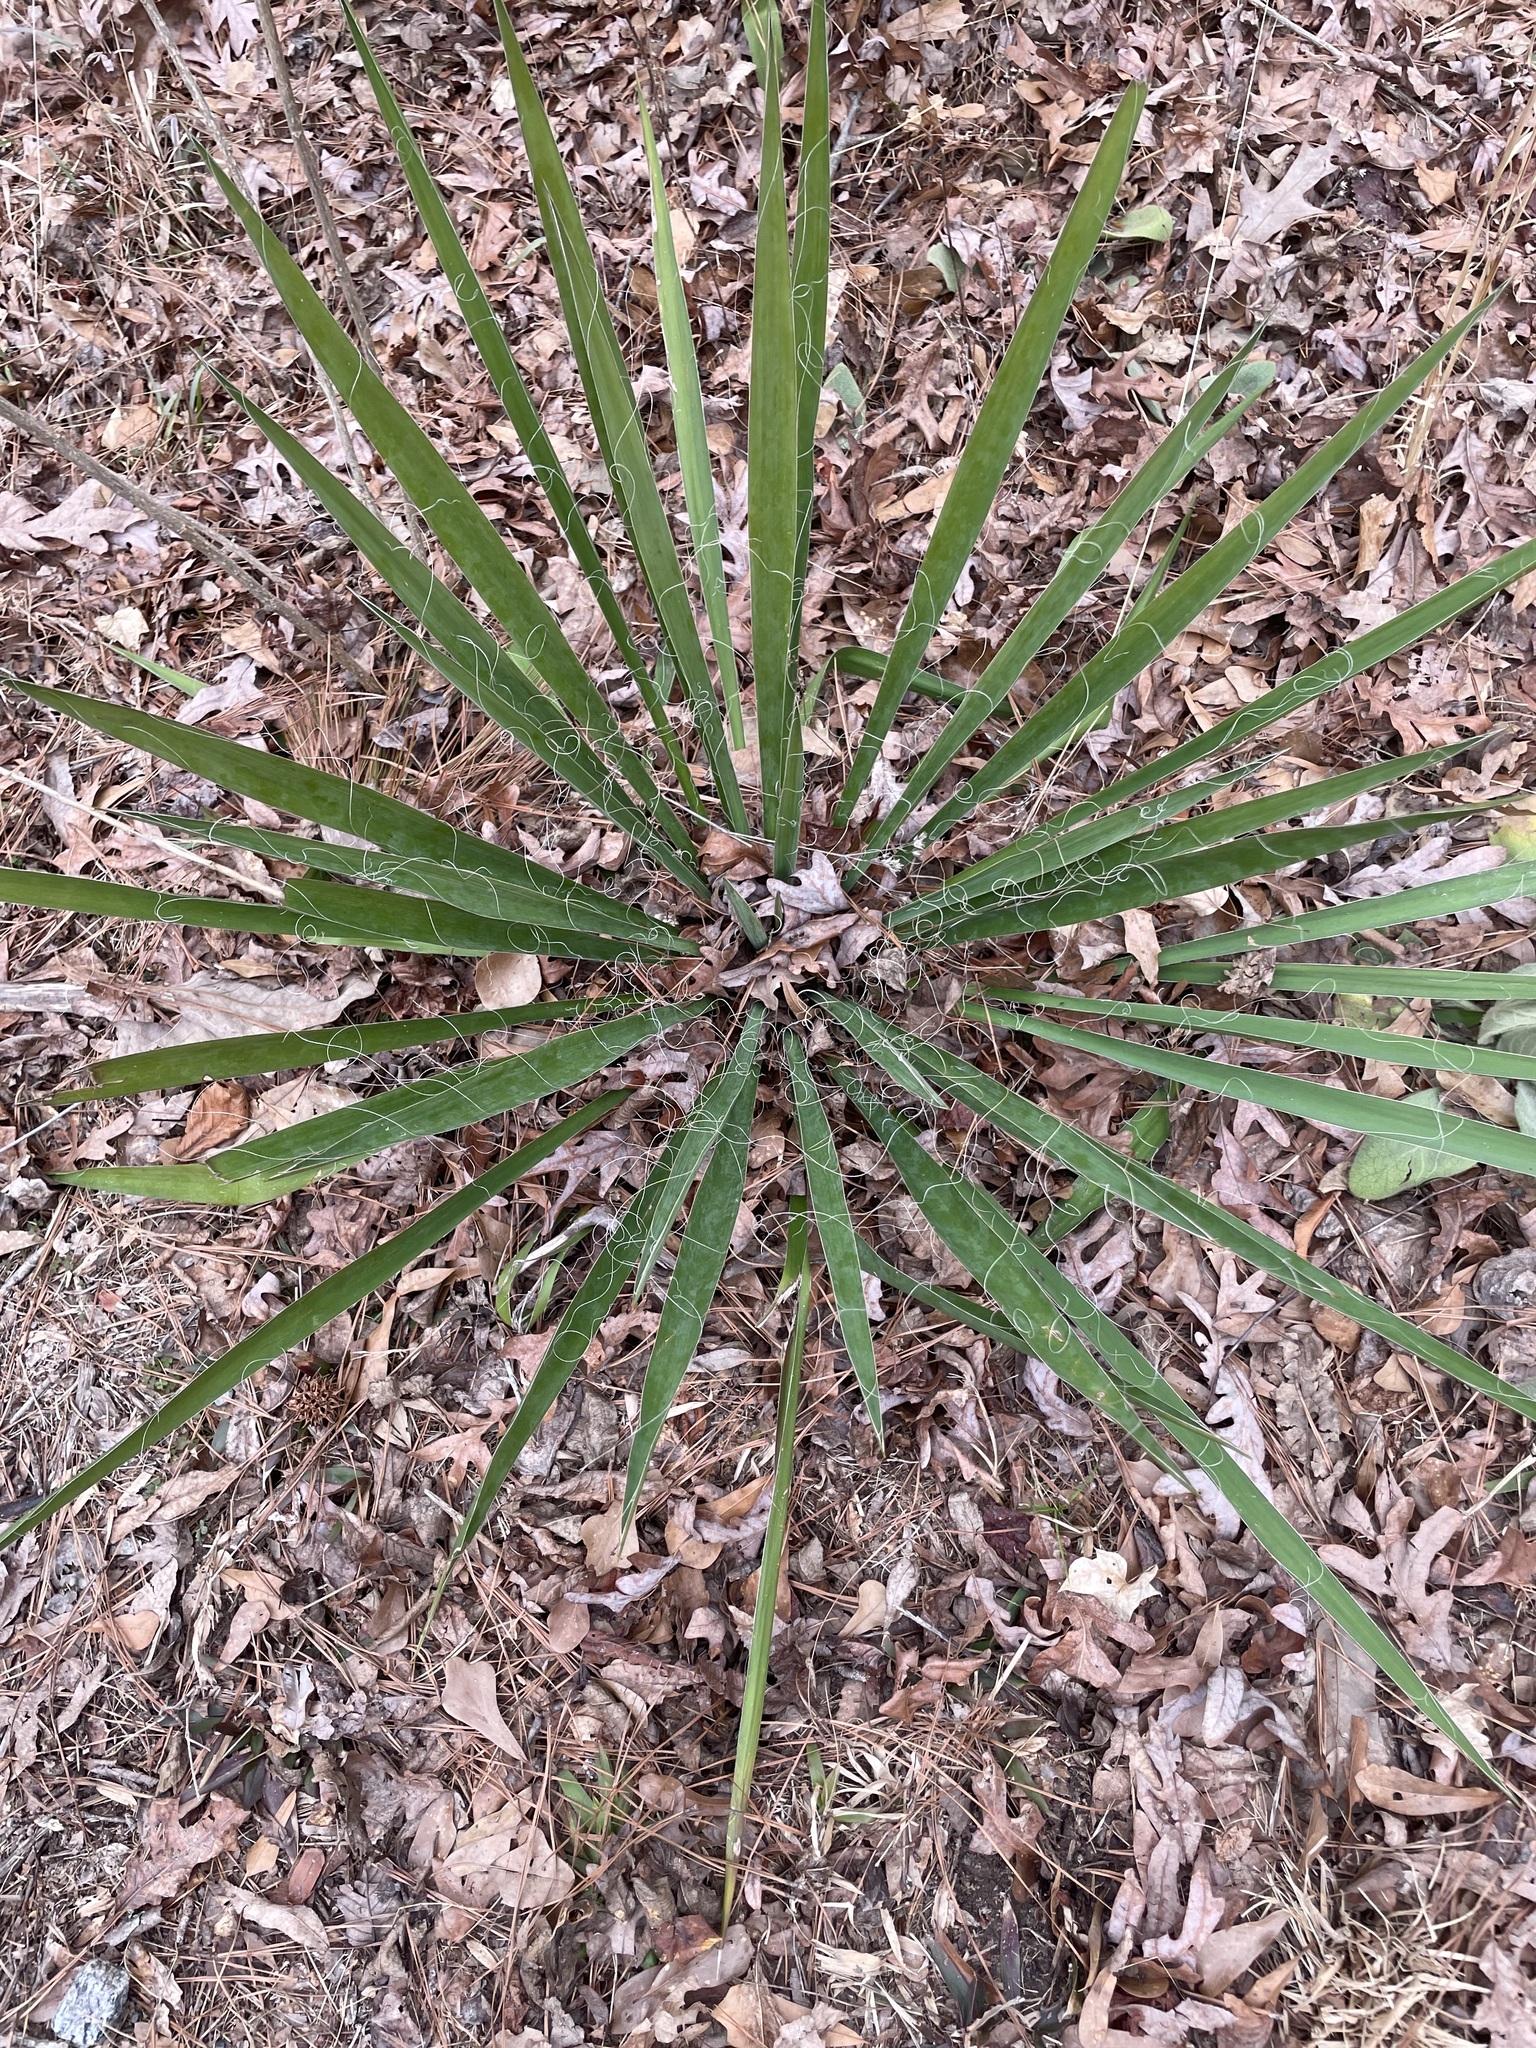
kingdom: Plantae
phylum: Tracheophyta
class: Liliopsida
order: Asparagales
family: Asparagaceae
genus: Yucca
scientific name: Yucca filamentosa
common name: Adam's-needle
